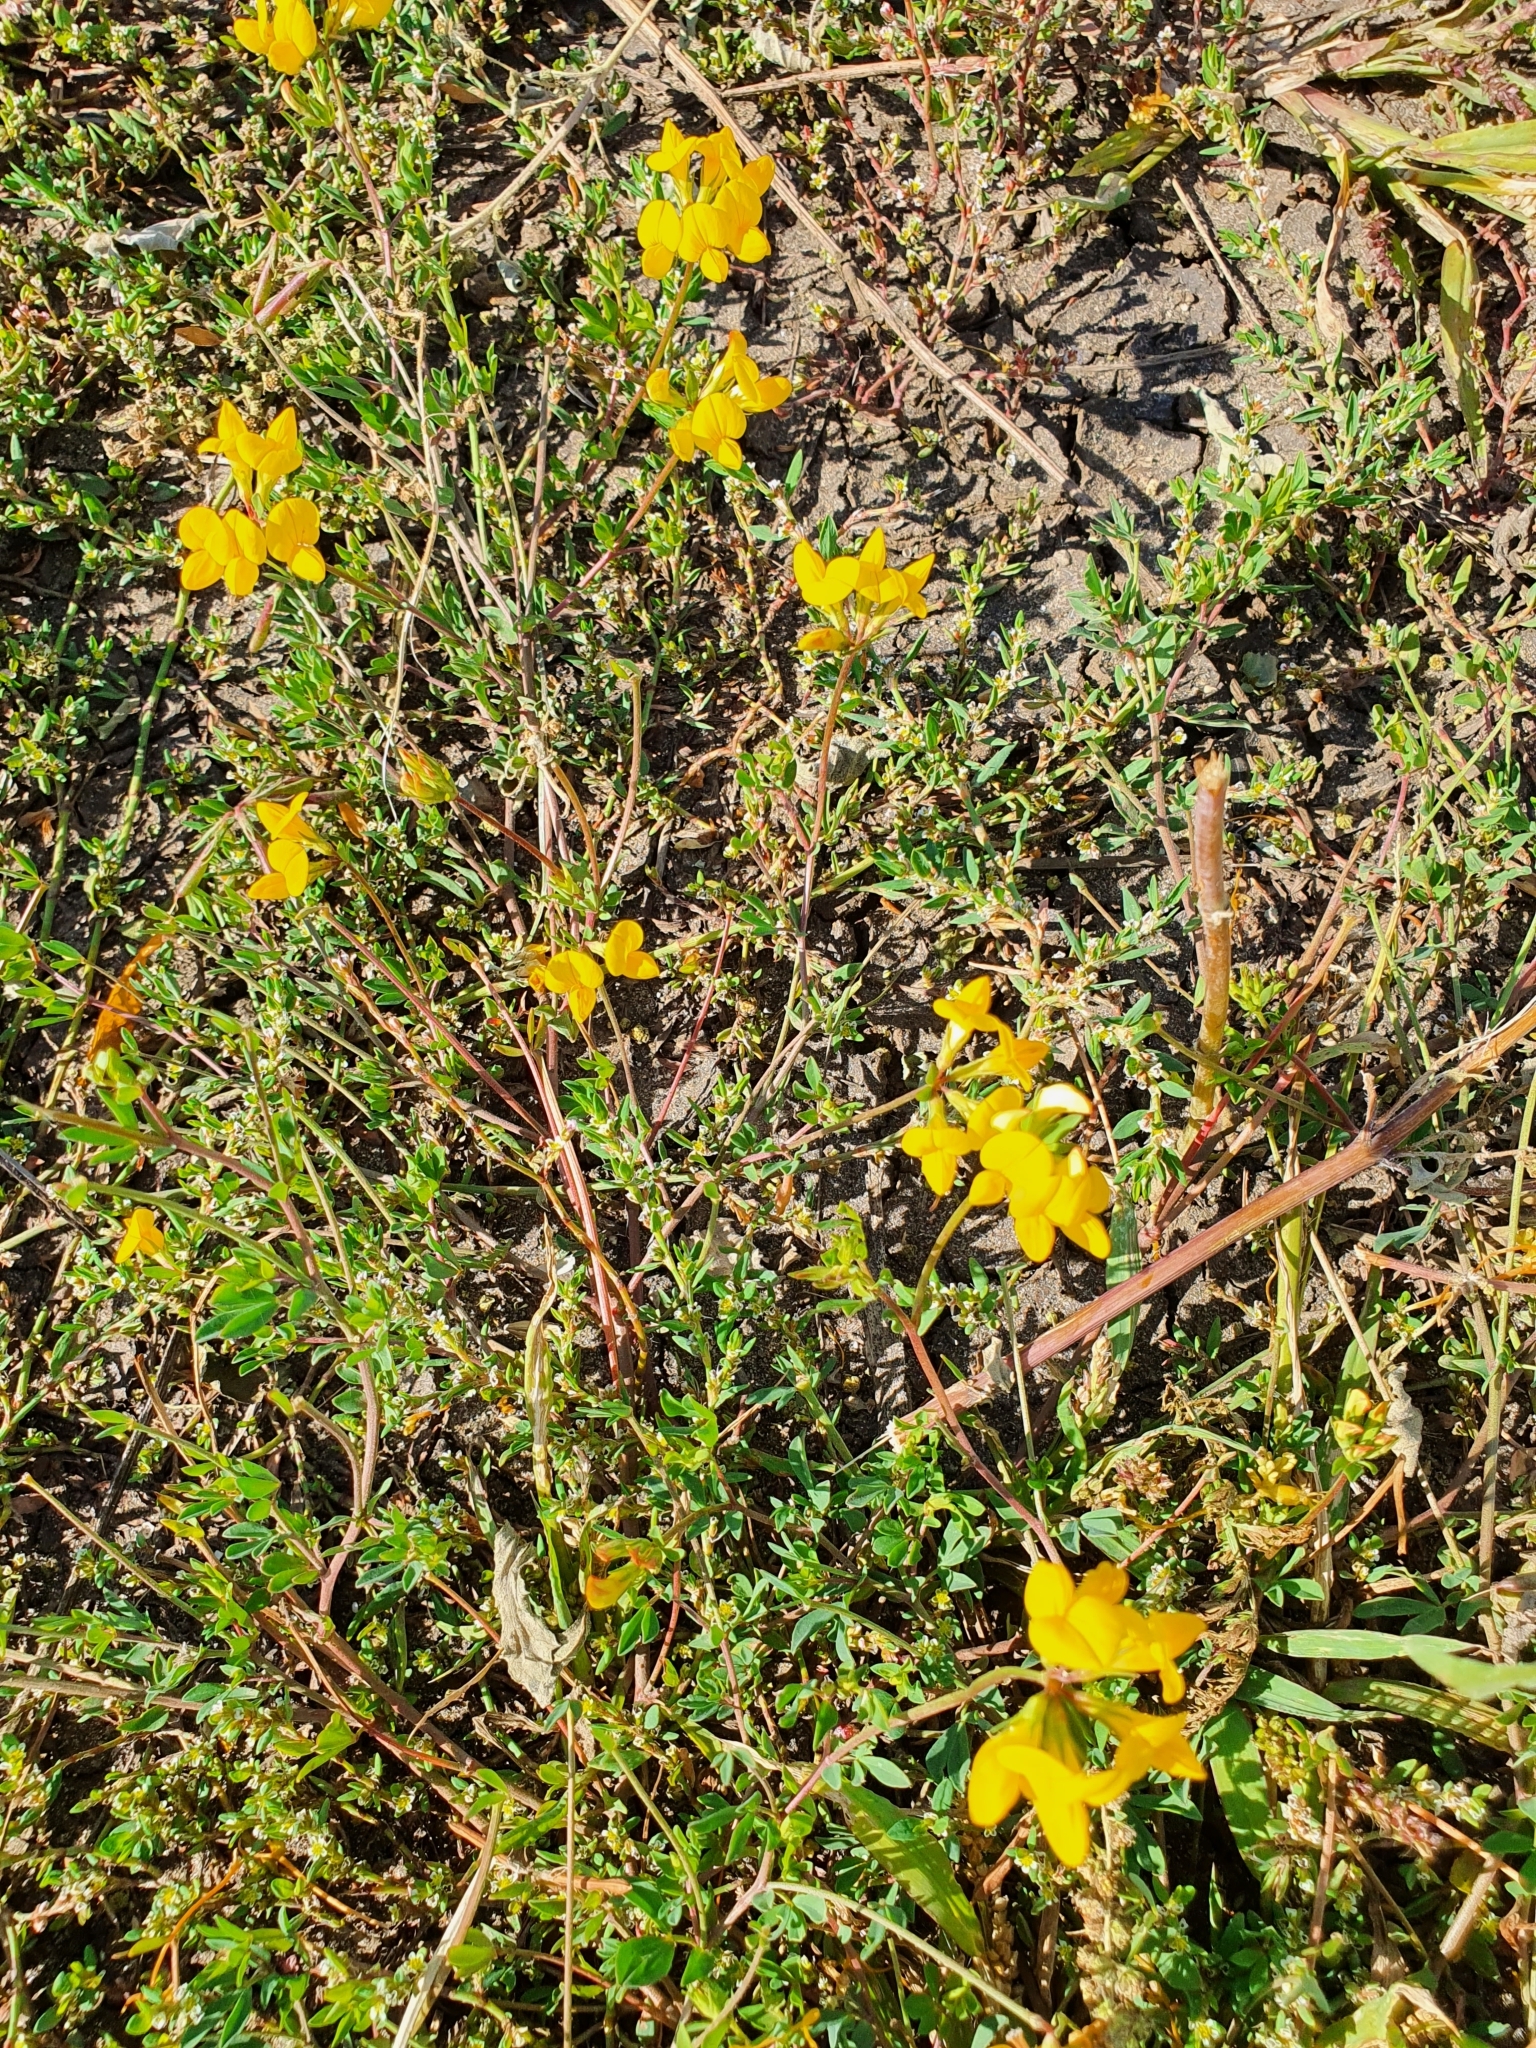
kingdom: Plantae
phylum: Tracheophyta
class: Magnoliopsida
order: Fabales
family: Fabaceae
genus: Lotus
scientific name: Lotus corniculatus
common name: Common bird's-foot-trefoil
